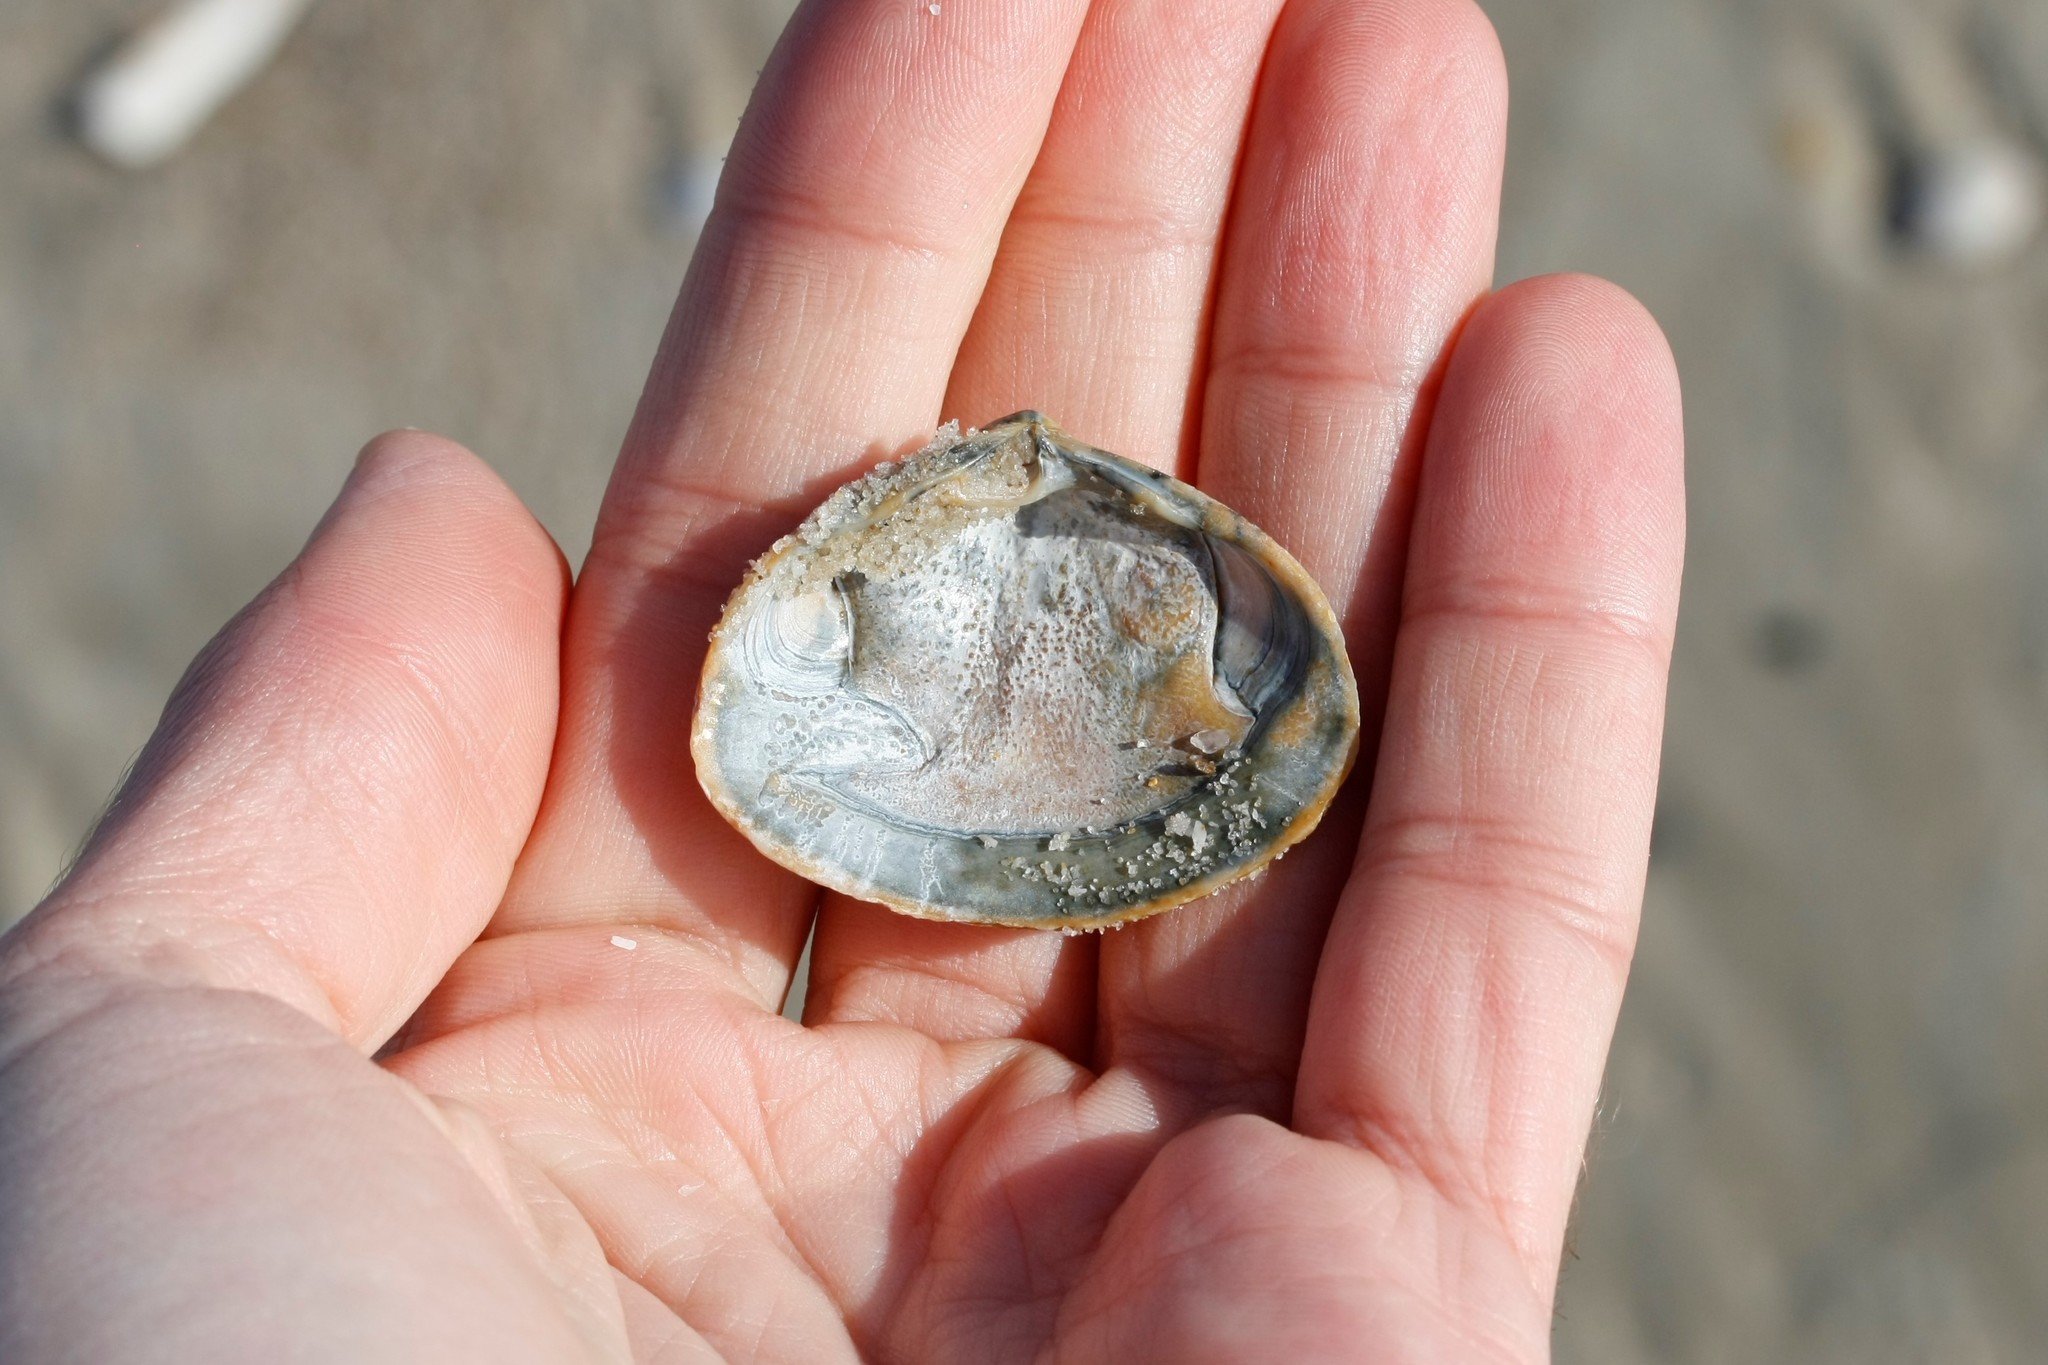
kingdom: Animalia
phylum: Mollusca
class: Bivalvia
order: Venerida
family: Mactridae
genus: Spisula
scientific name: Spisula solida
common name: Thick trough shell
